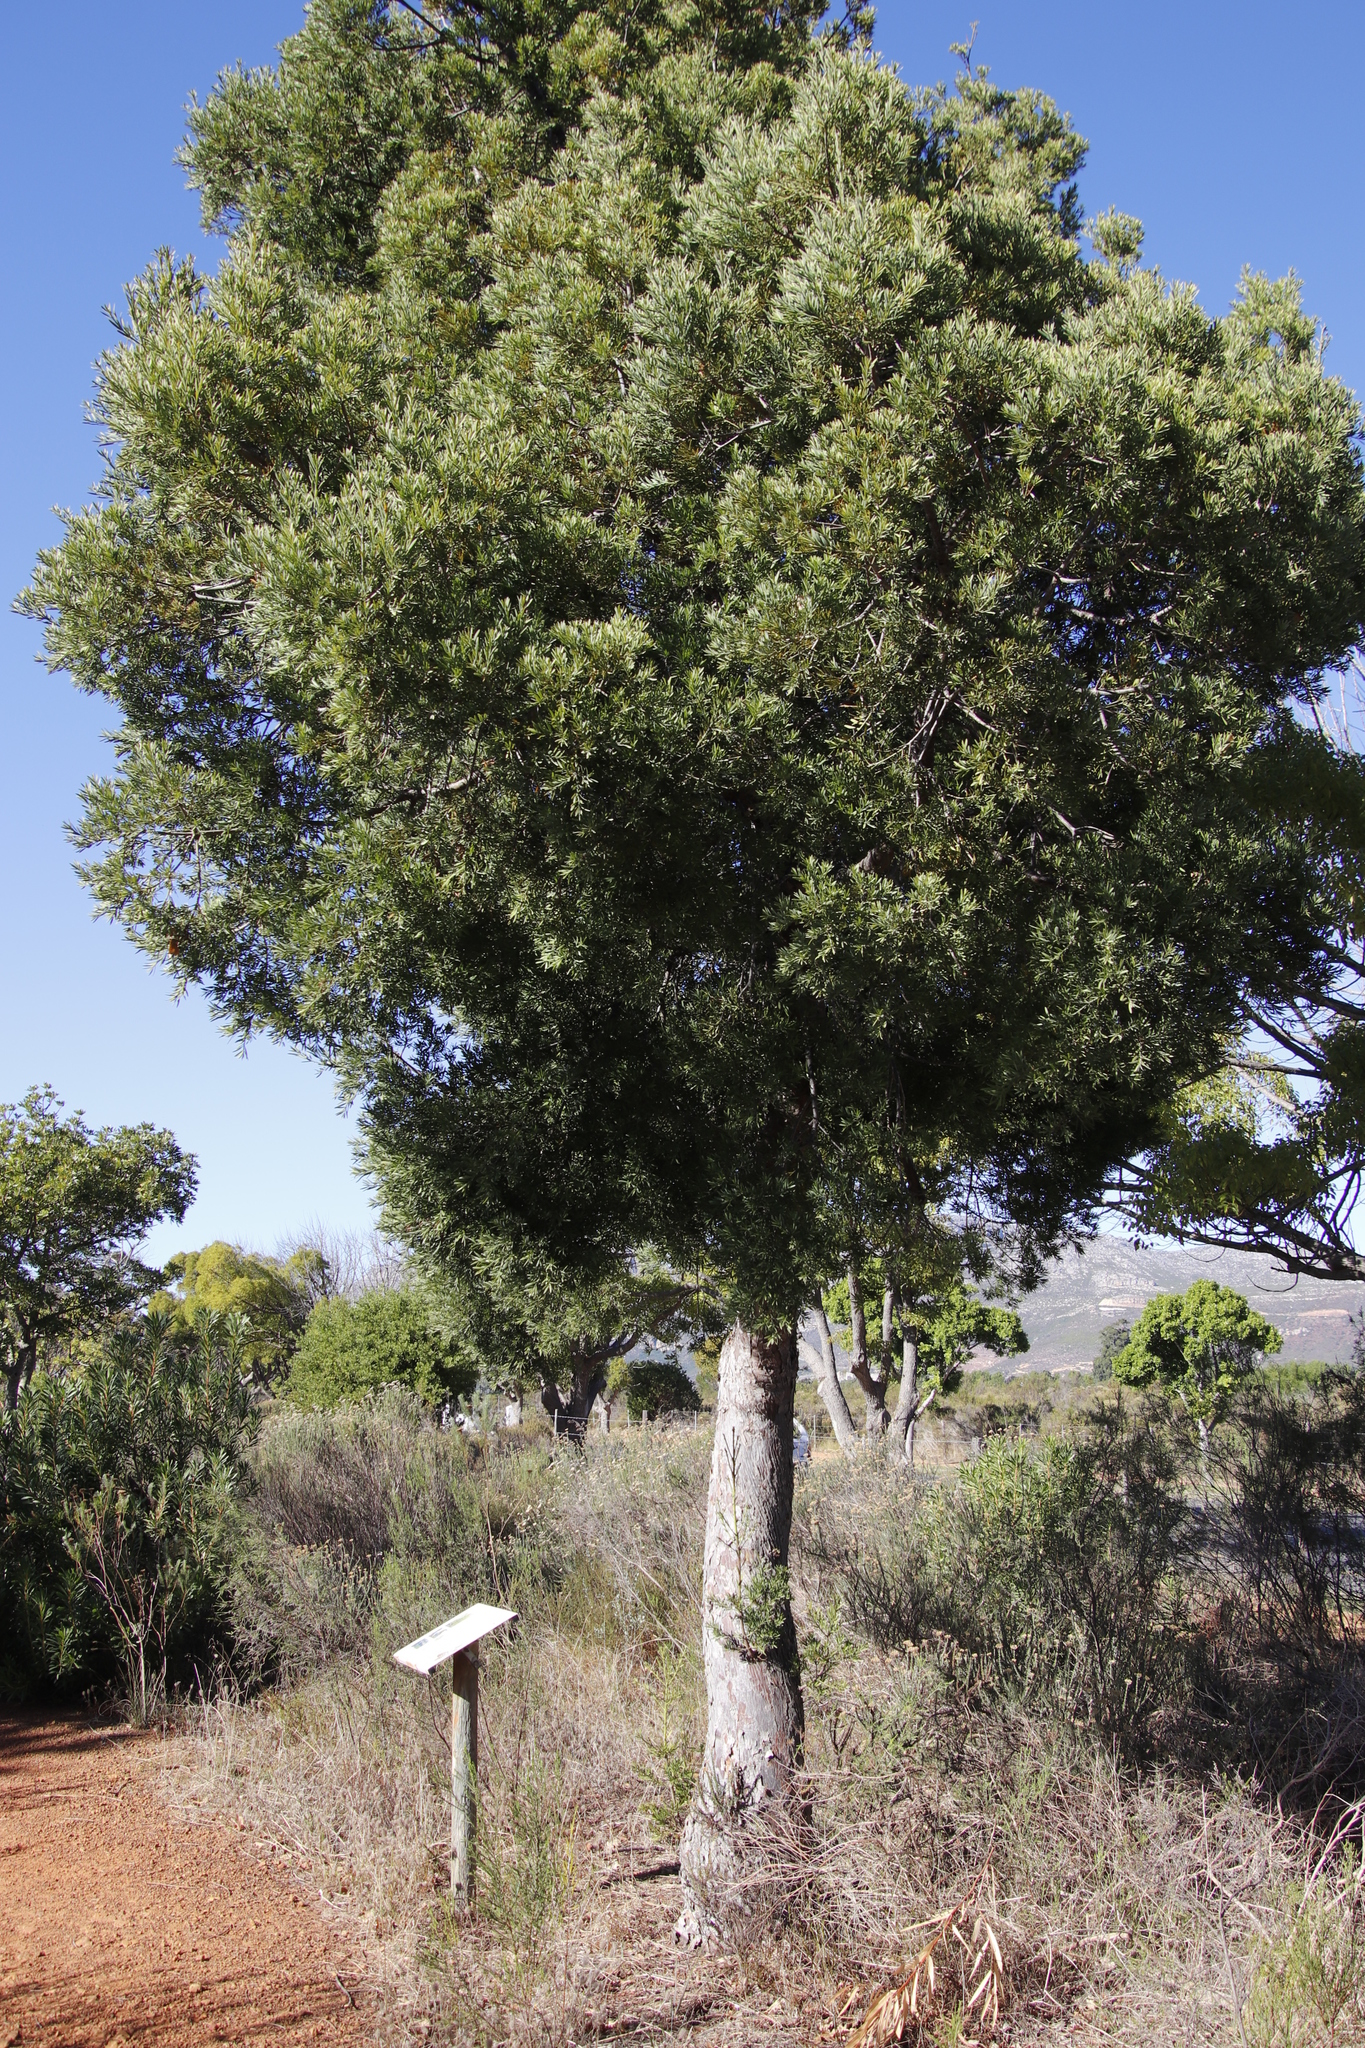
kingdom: Plantae
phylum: Tracheophyta
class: Pinopsida
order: Pinales
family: Podocarpaceae
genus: Afrocarpus
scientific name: Afrocarpus falcatus
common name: Bastard yellowwood
